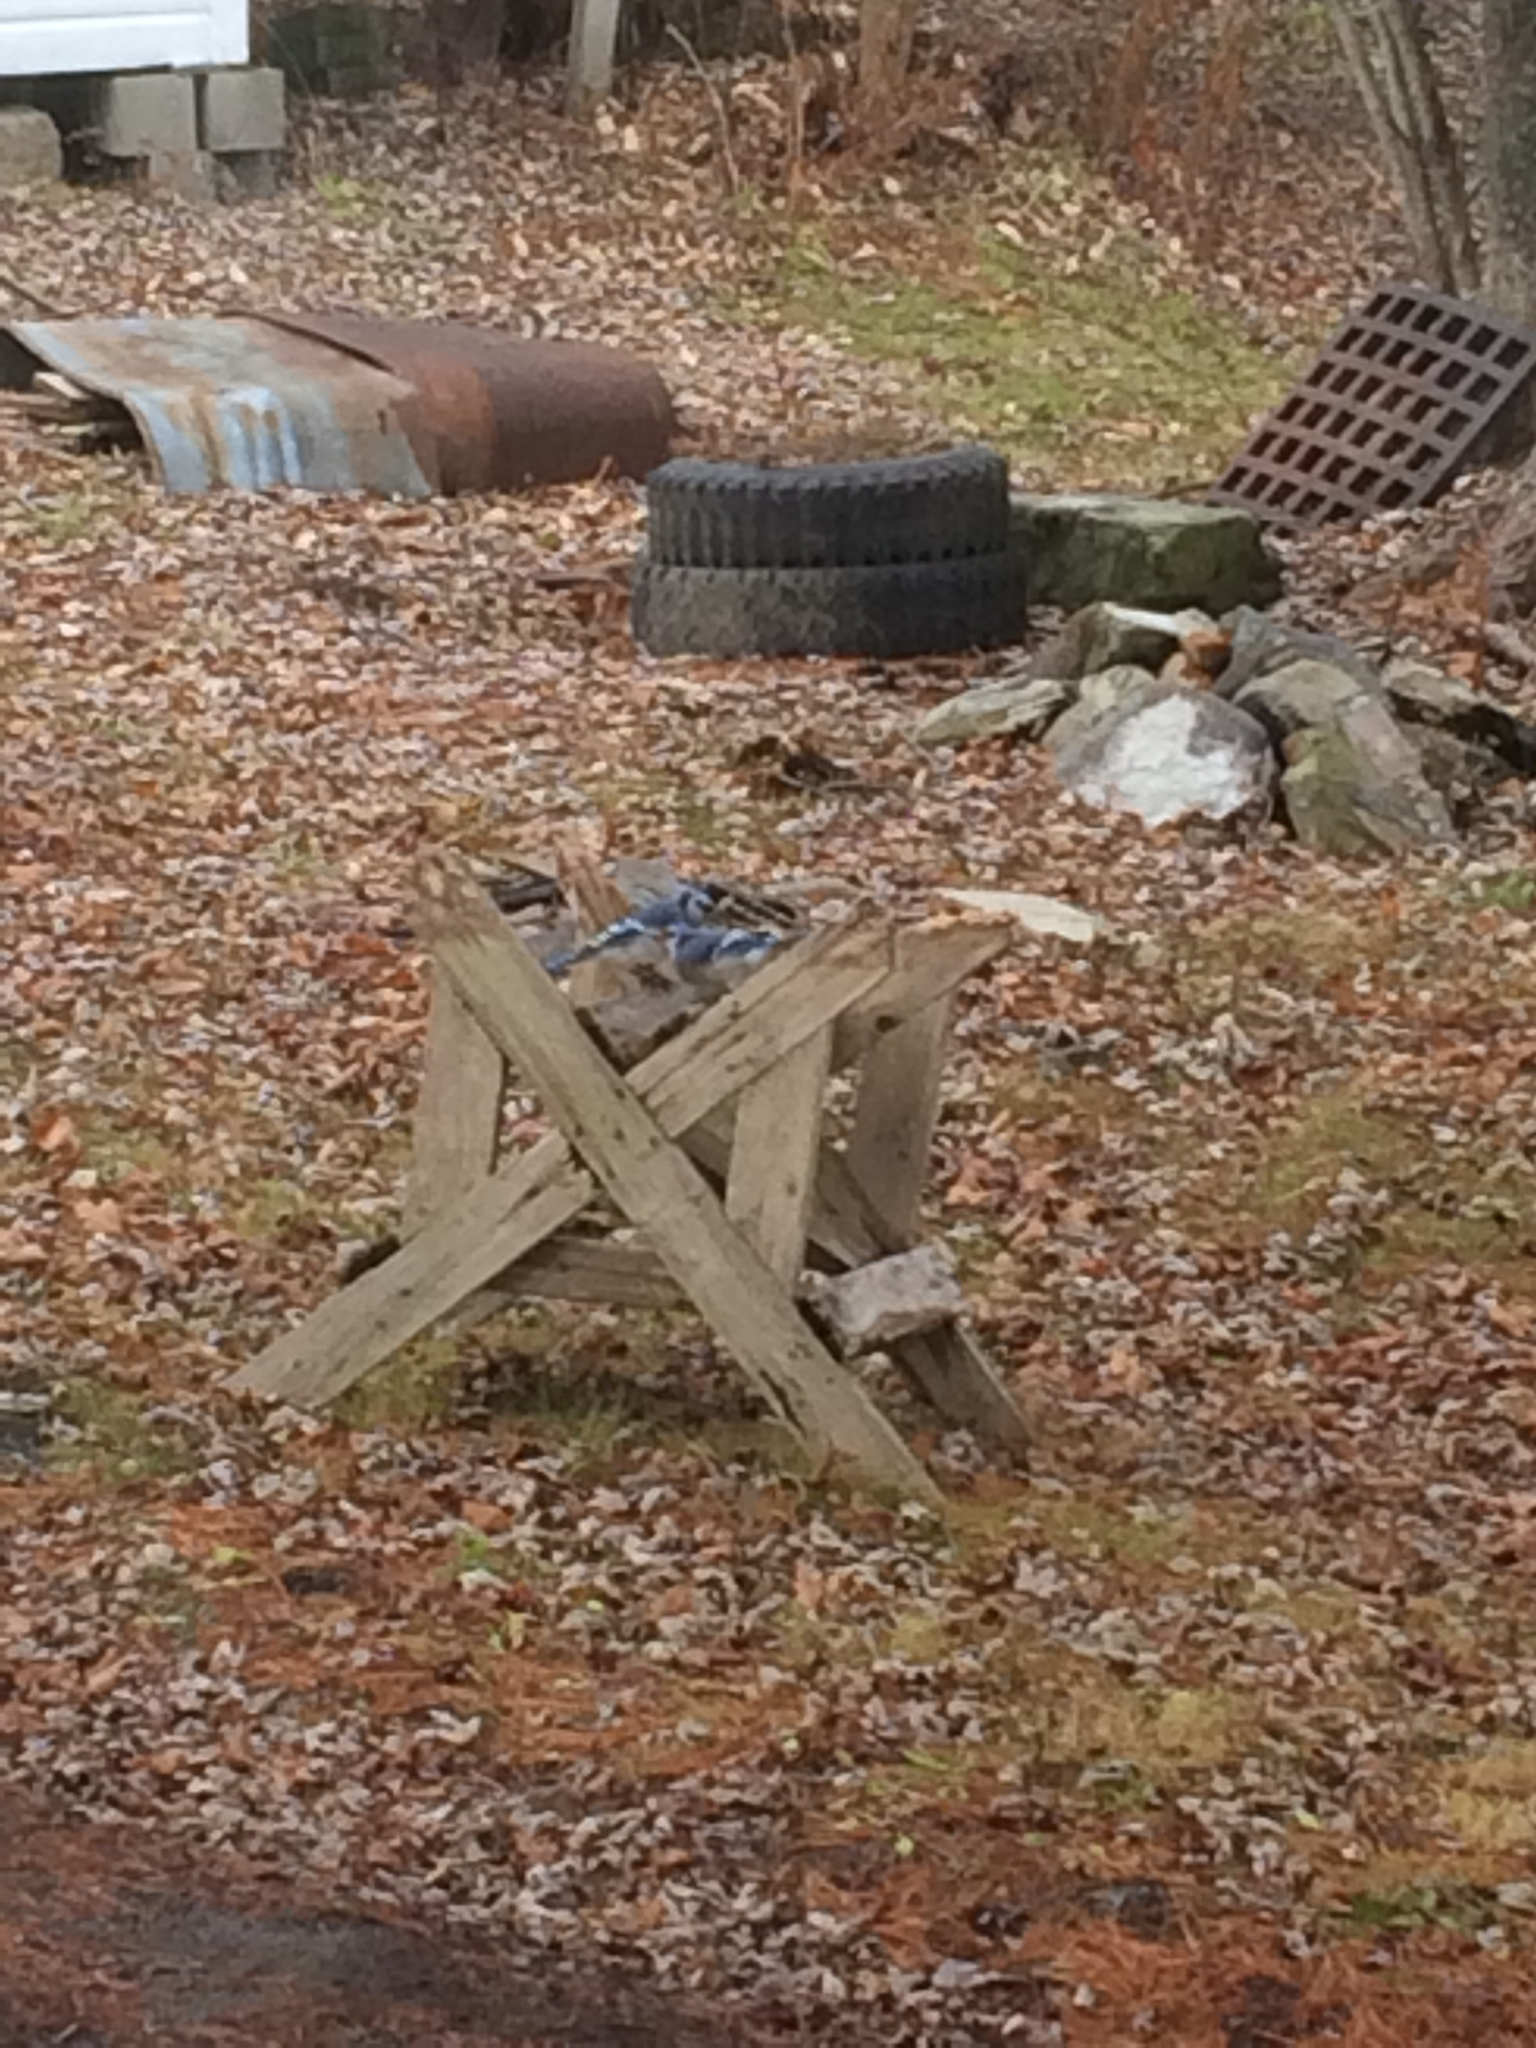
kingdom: Animalia
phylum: Chordata
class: Aves
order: Passeriformes
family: Corvidae
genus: Cyanocitta
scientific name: Cyanocitta cristata
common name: Blue jay
